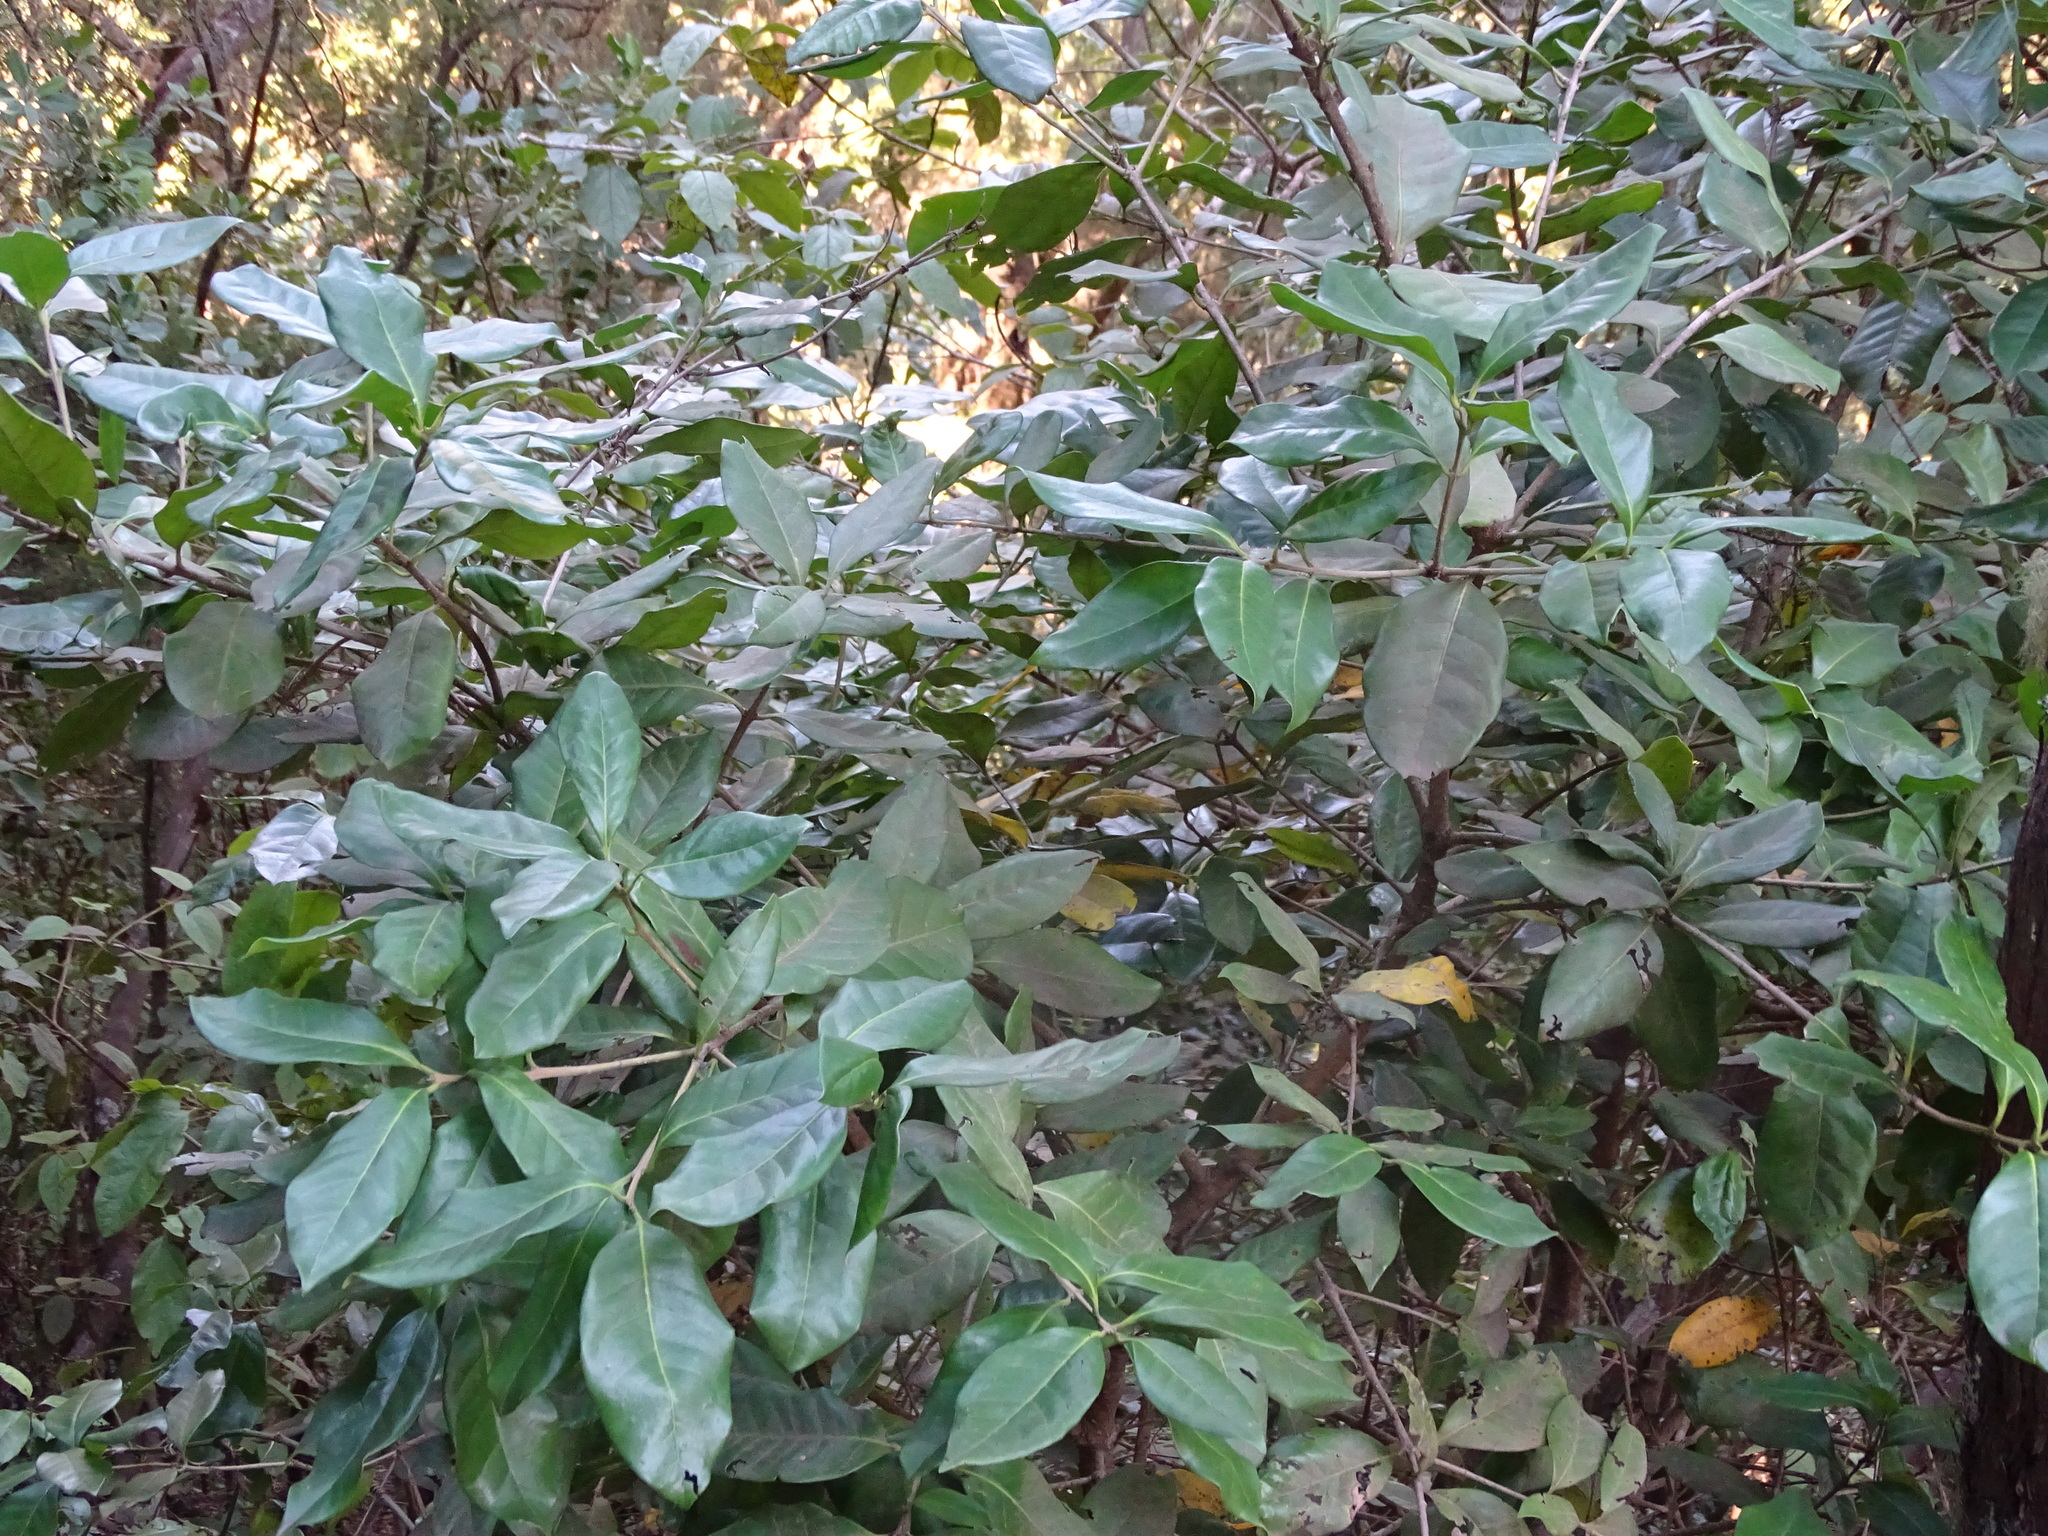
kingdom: Plantae
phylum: Tracheophyta
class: Magnoliopsida
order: Lamiales
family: Oleaceae
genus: Picconia
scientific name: Picconia excelsa
